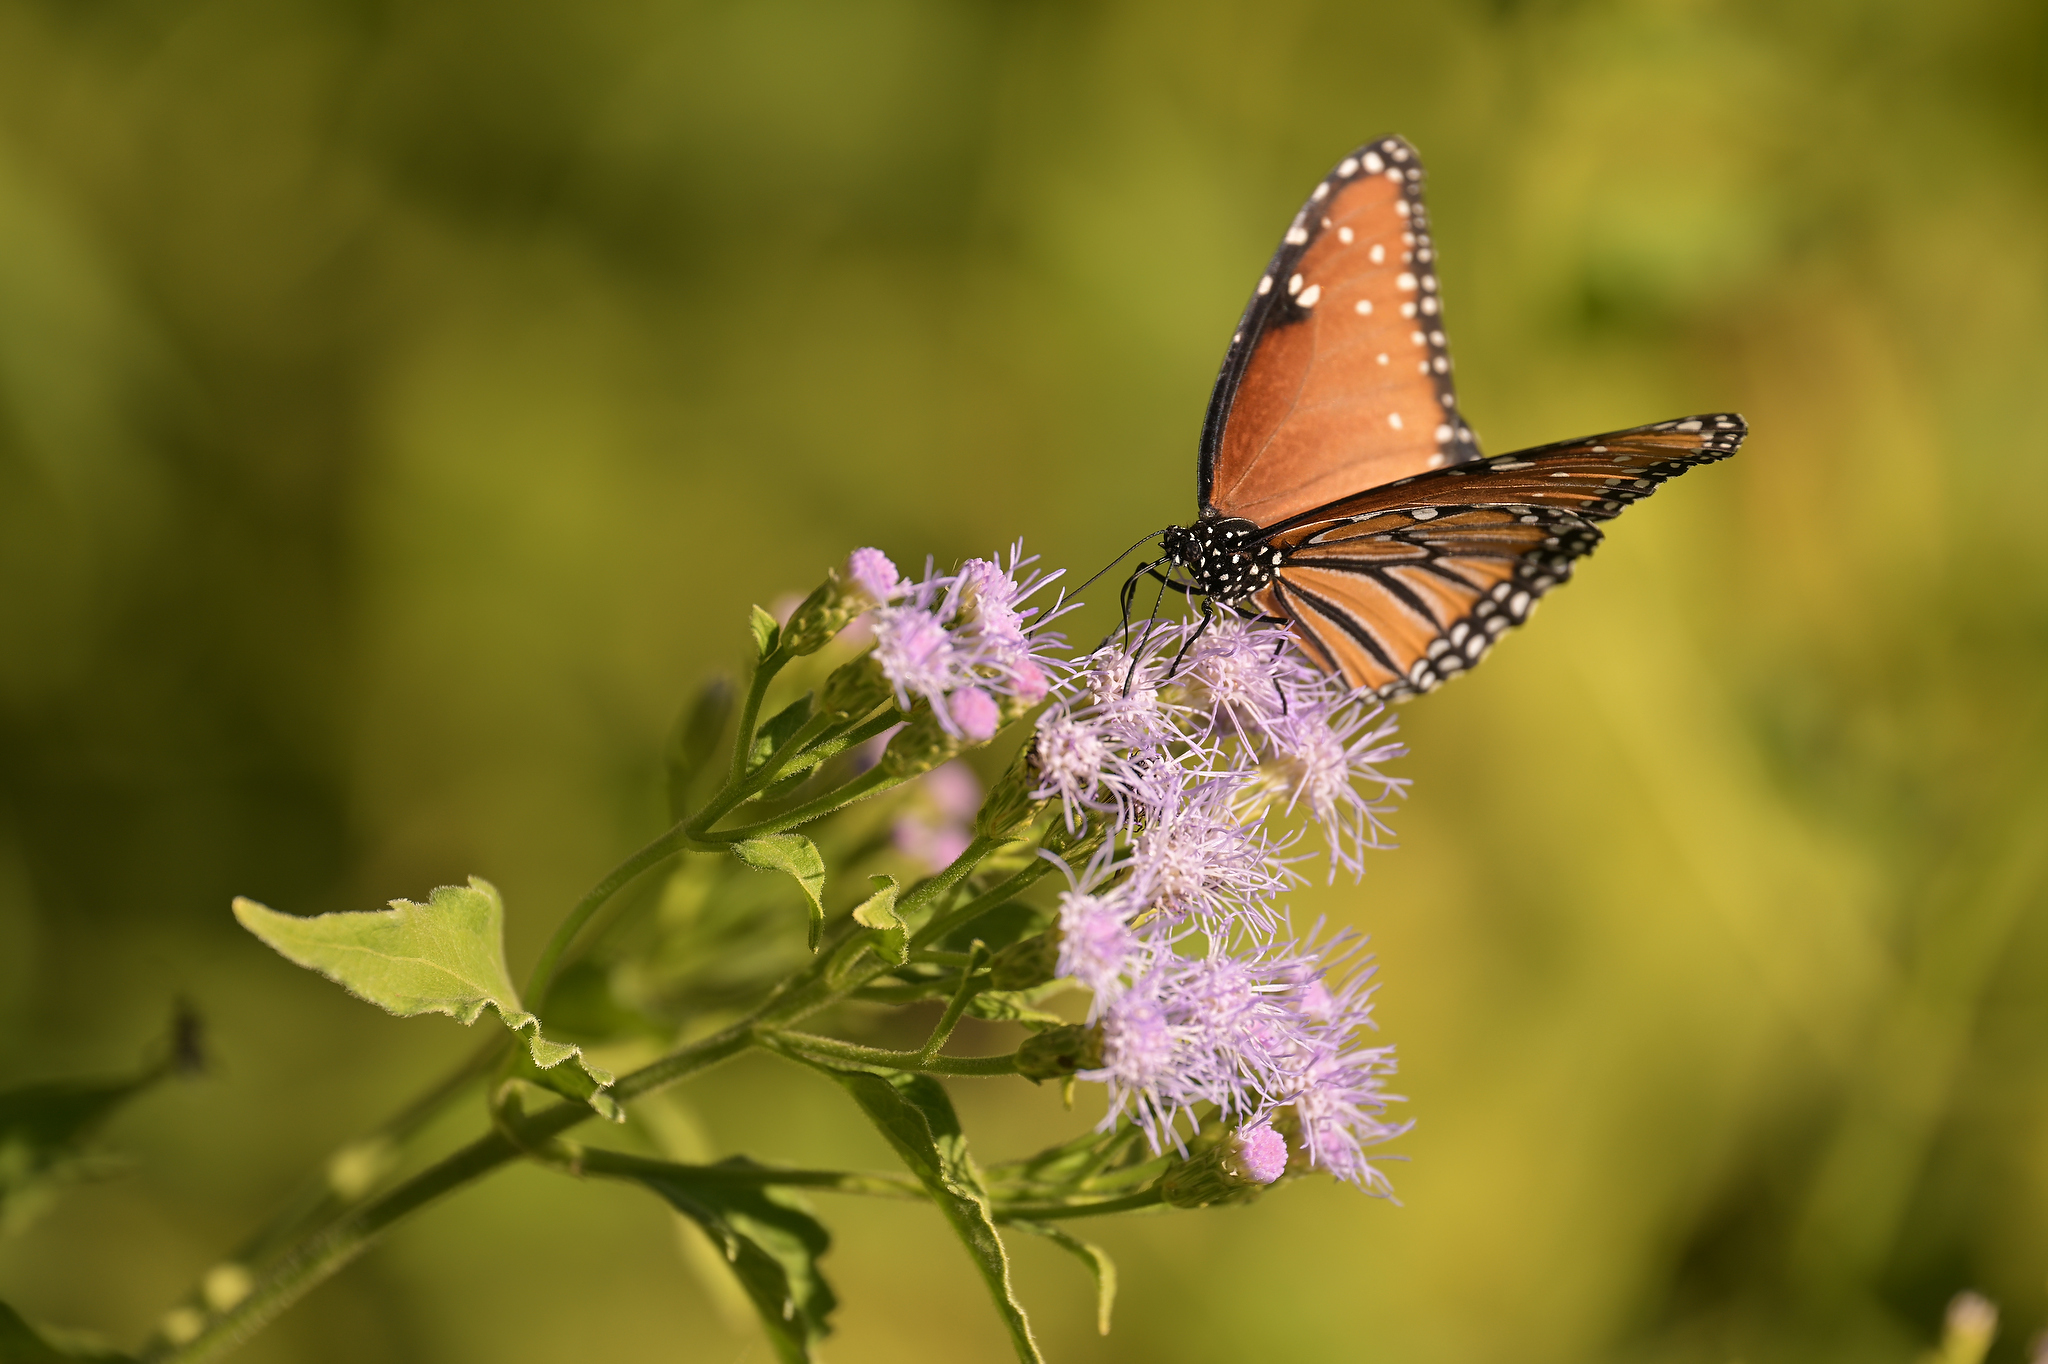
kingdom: Animalia
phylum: Arthropoda
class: Insecta
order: Lepidoptera
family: Nymphalidae
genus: Danaus
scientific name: Danaus gilippus
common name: Queen
